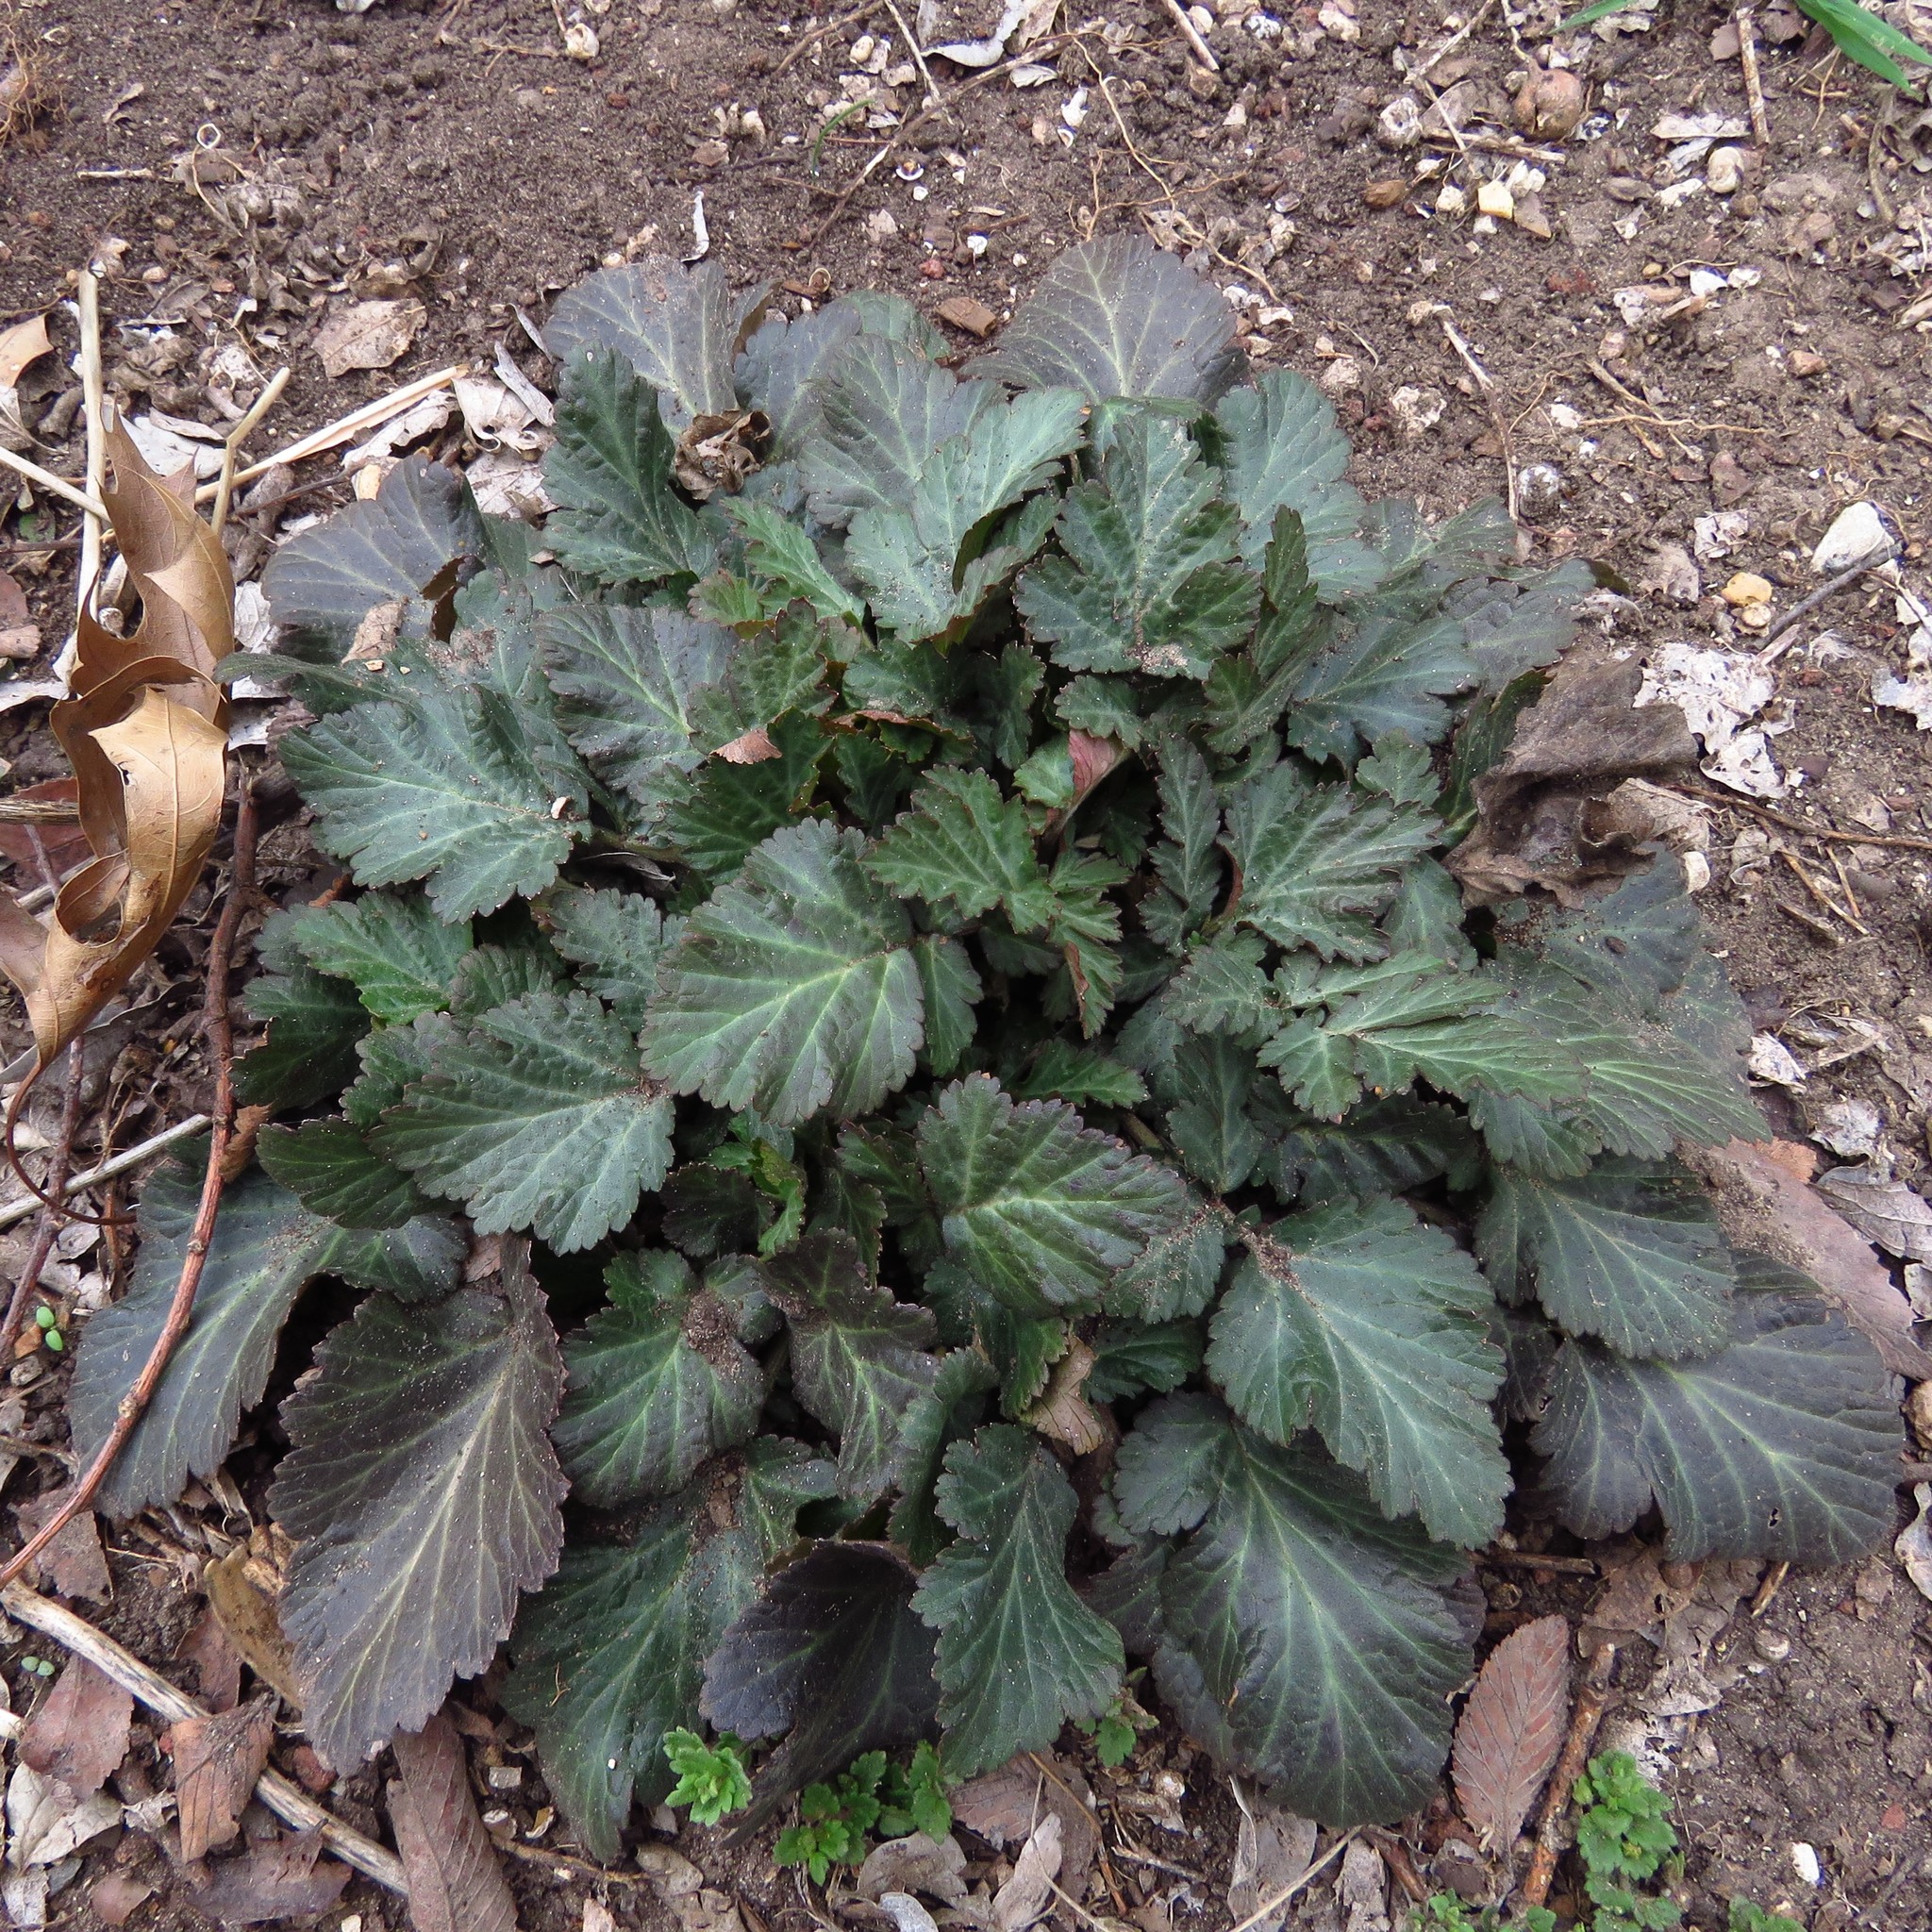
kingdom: Plantae
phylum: Tracheophyta
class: Magnoliopsida
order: Rosales
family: Rosaceae
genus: Geum
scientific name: Geum canadense
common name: White avens
